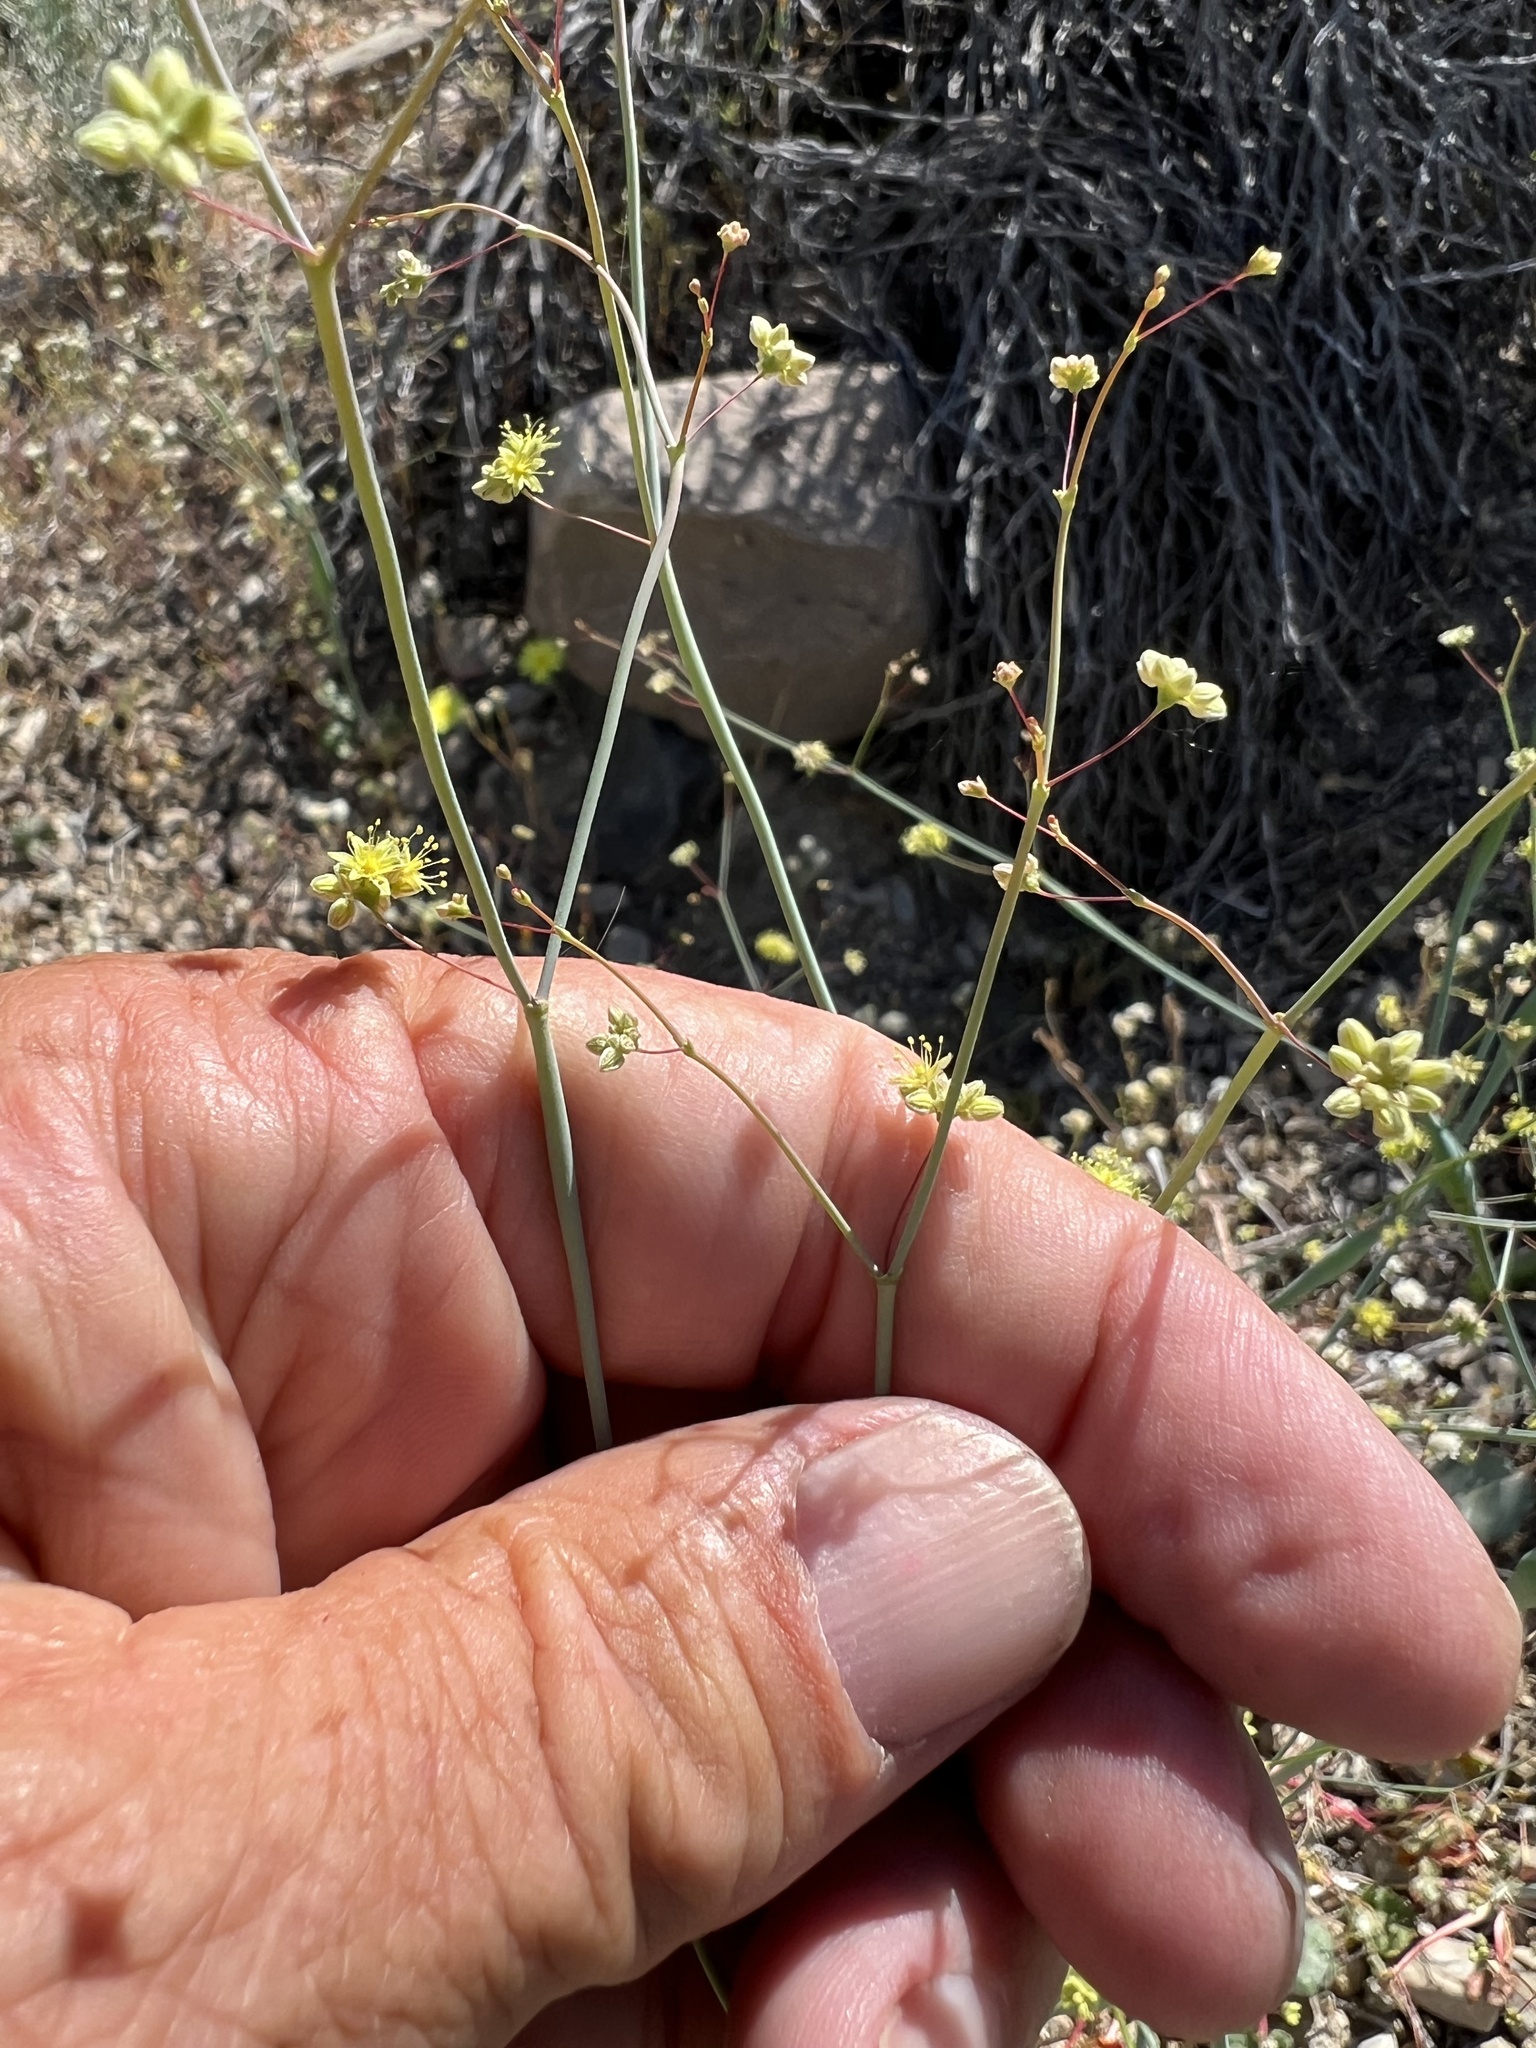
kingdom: Plantae
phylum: Tracheophyta
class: Magnoliopsida
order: Caryophyllales
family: Polygonaceae
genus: Eriogonum
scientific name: Eriogonum inflatum
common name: Desert trumpet
